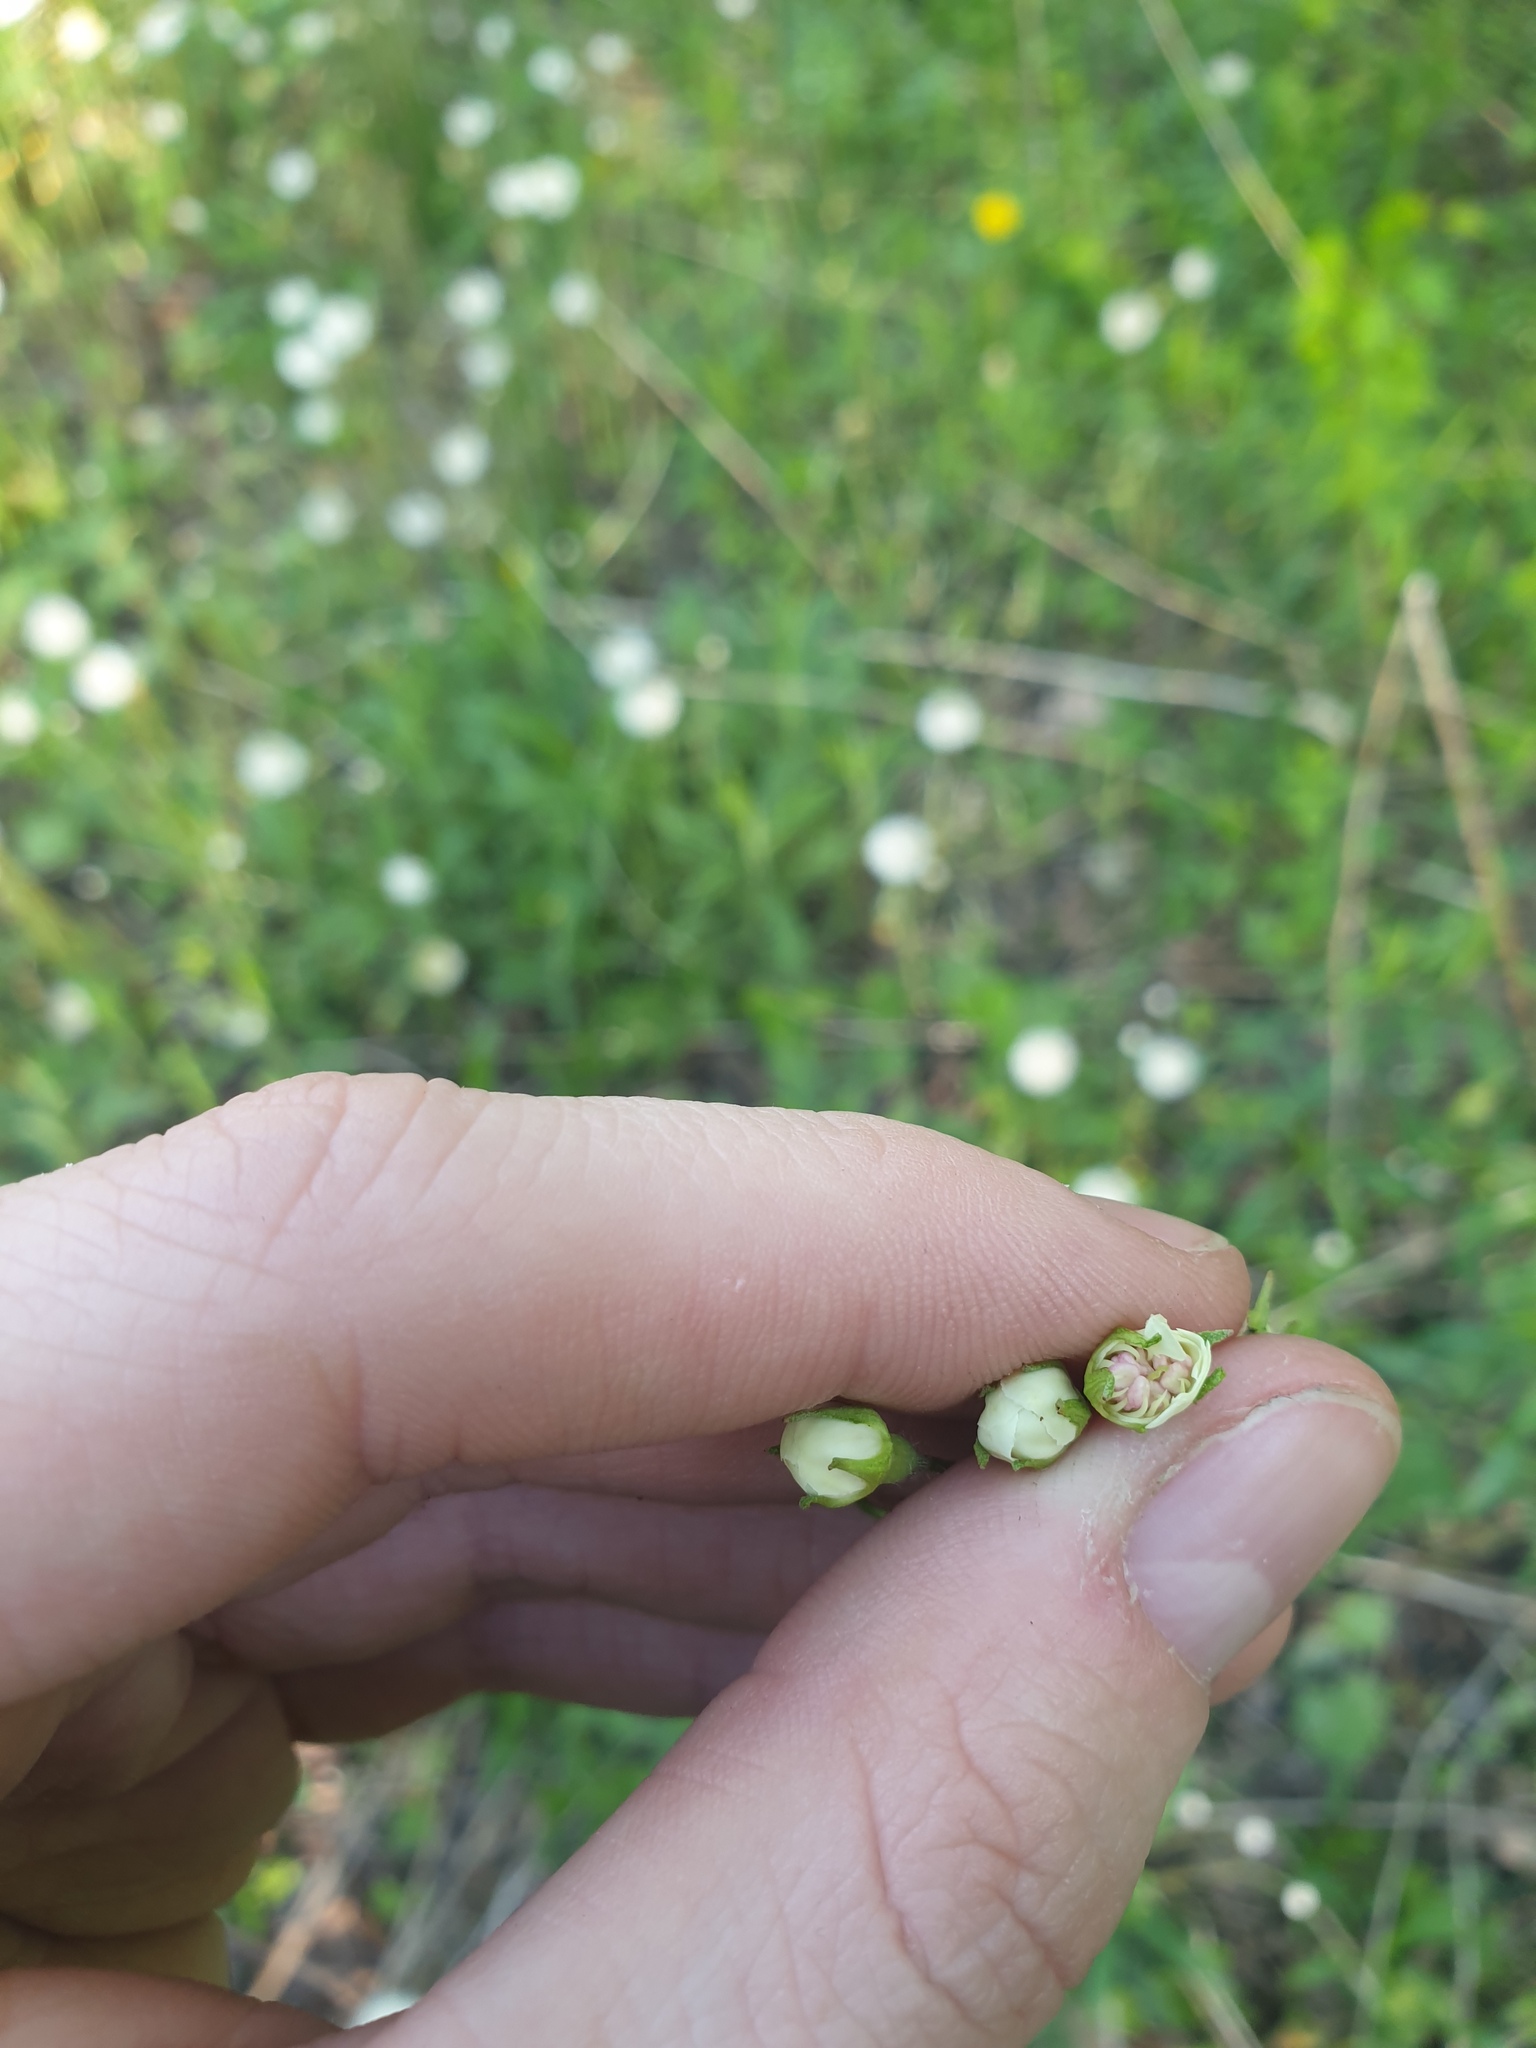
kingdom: Plantae
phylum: Tracheophyta
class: Magnoliopsida
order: Rosales
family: Rosaceae
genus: Crataegus
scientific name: Crataegus flabellata
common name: Bosc's hawthorn
